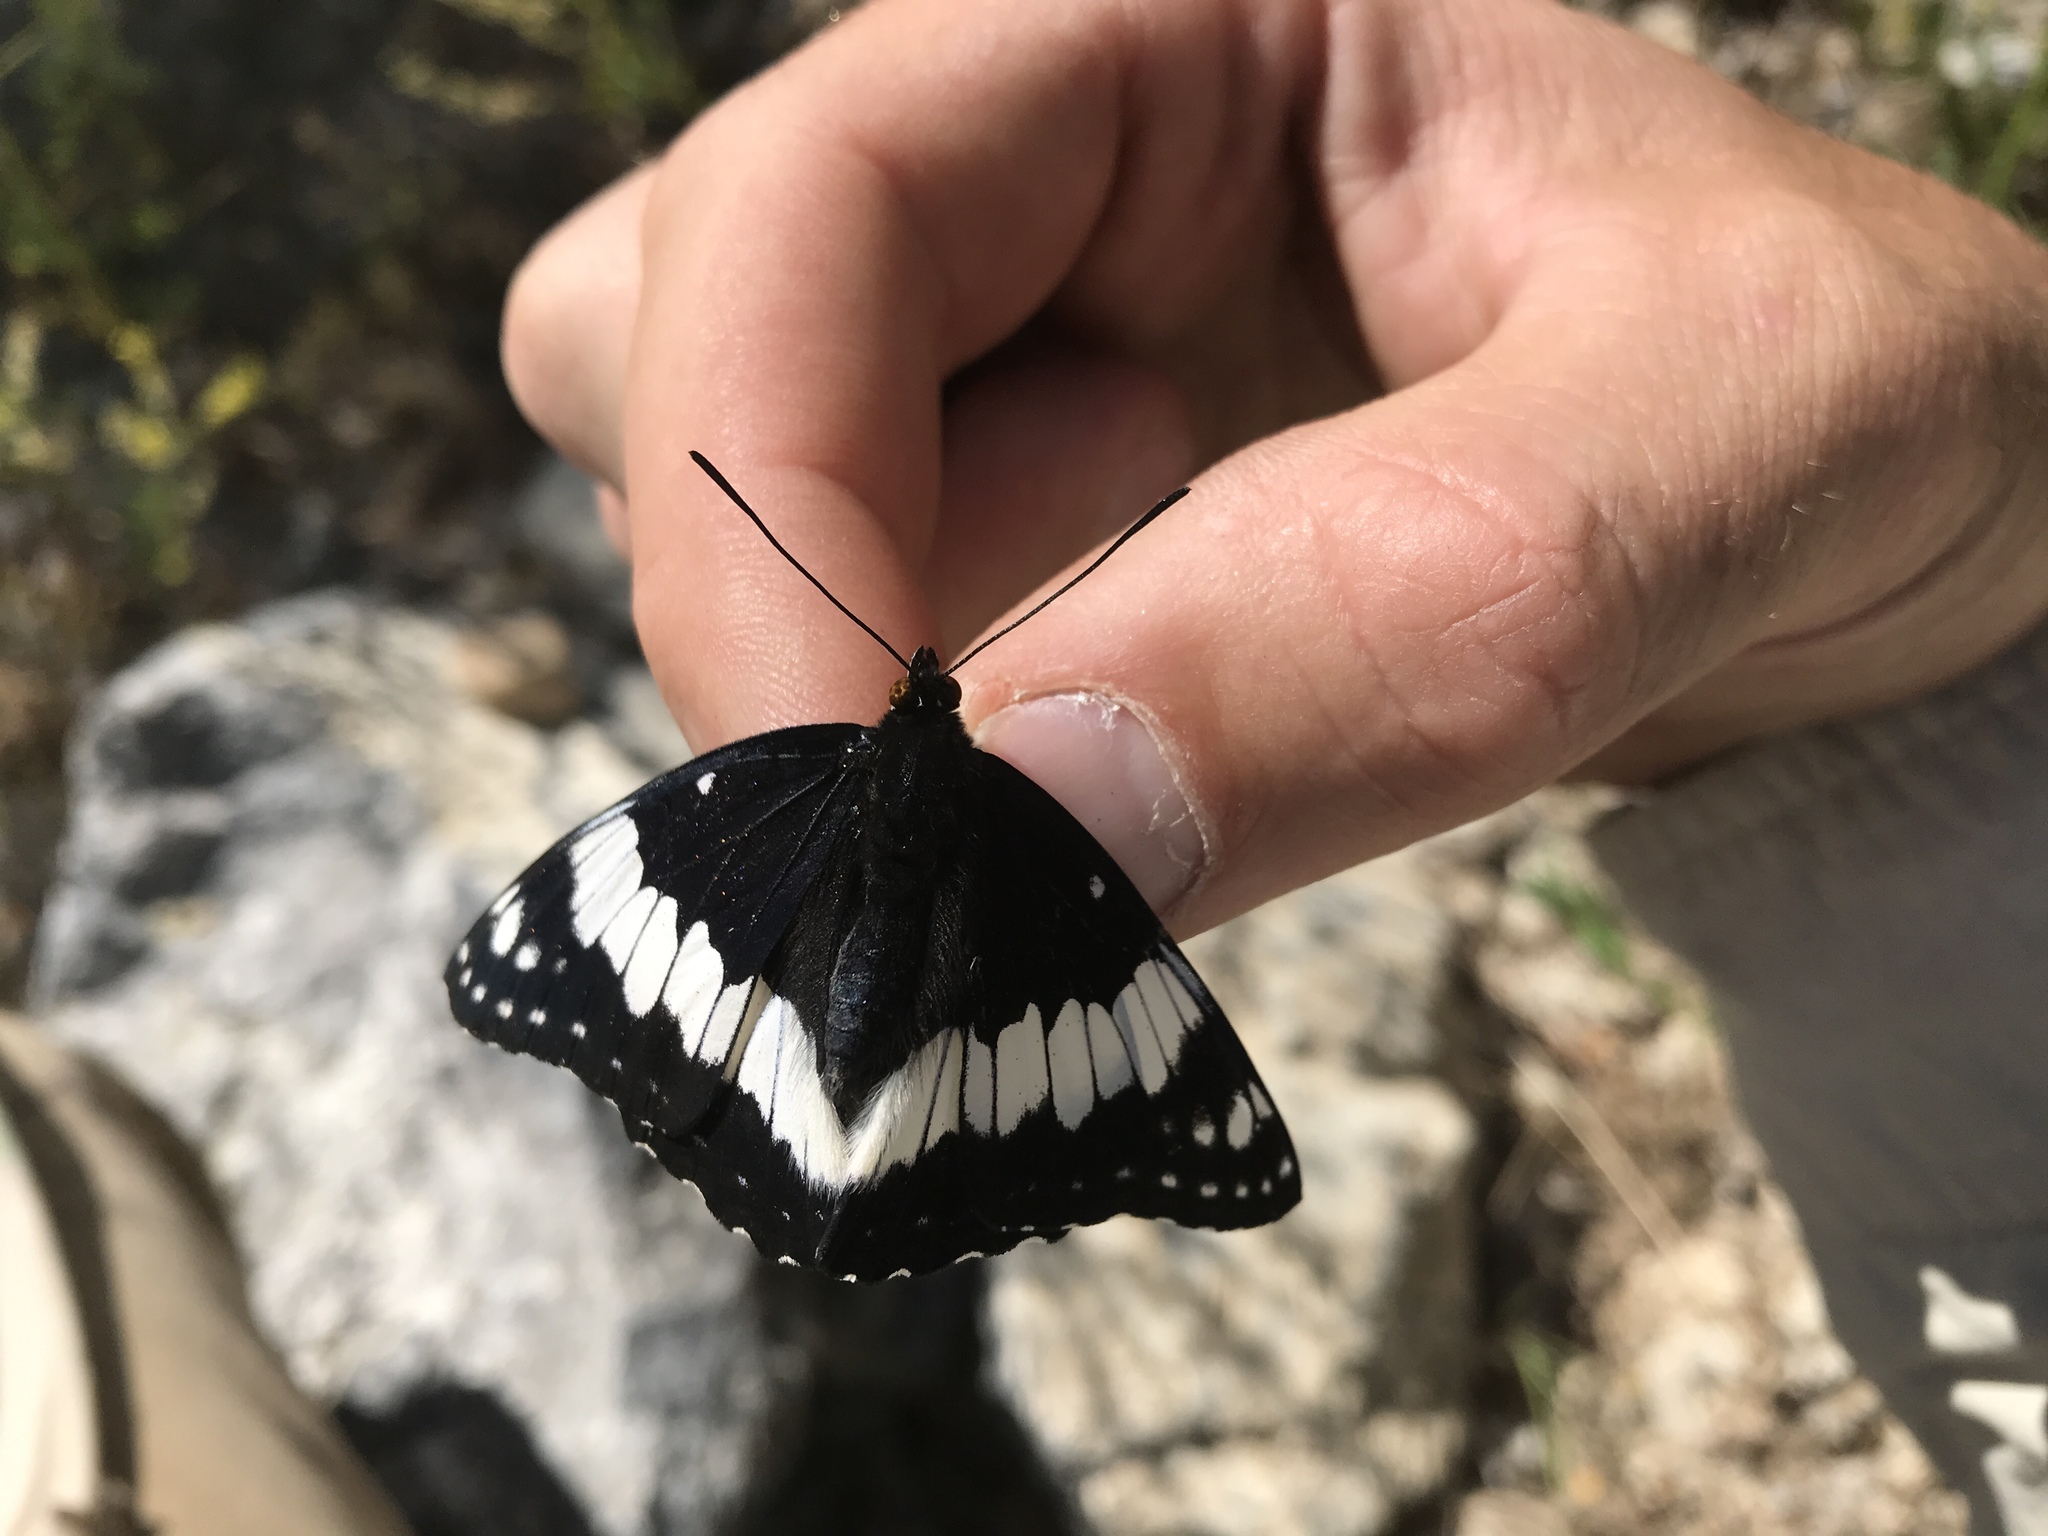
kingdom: Animalia
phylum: Arthropoda
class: Insecta
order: Lepidoptera
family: Nymphalidae
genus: Limenitis
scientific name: Limenitis weidemeyerii
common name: Weidemeyer's admiral
